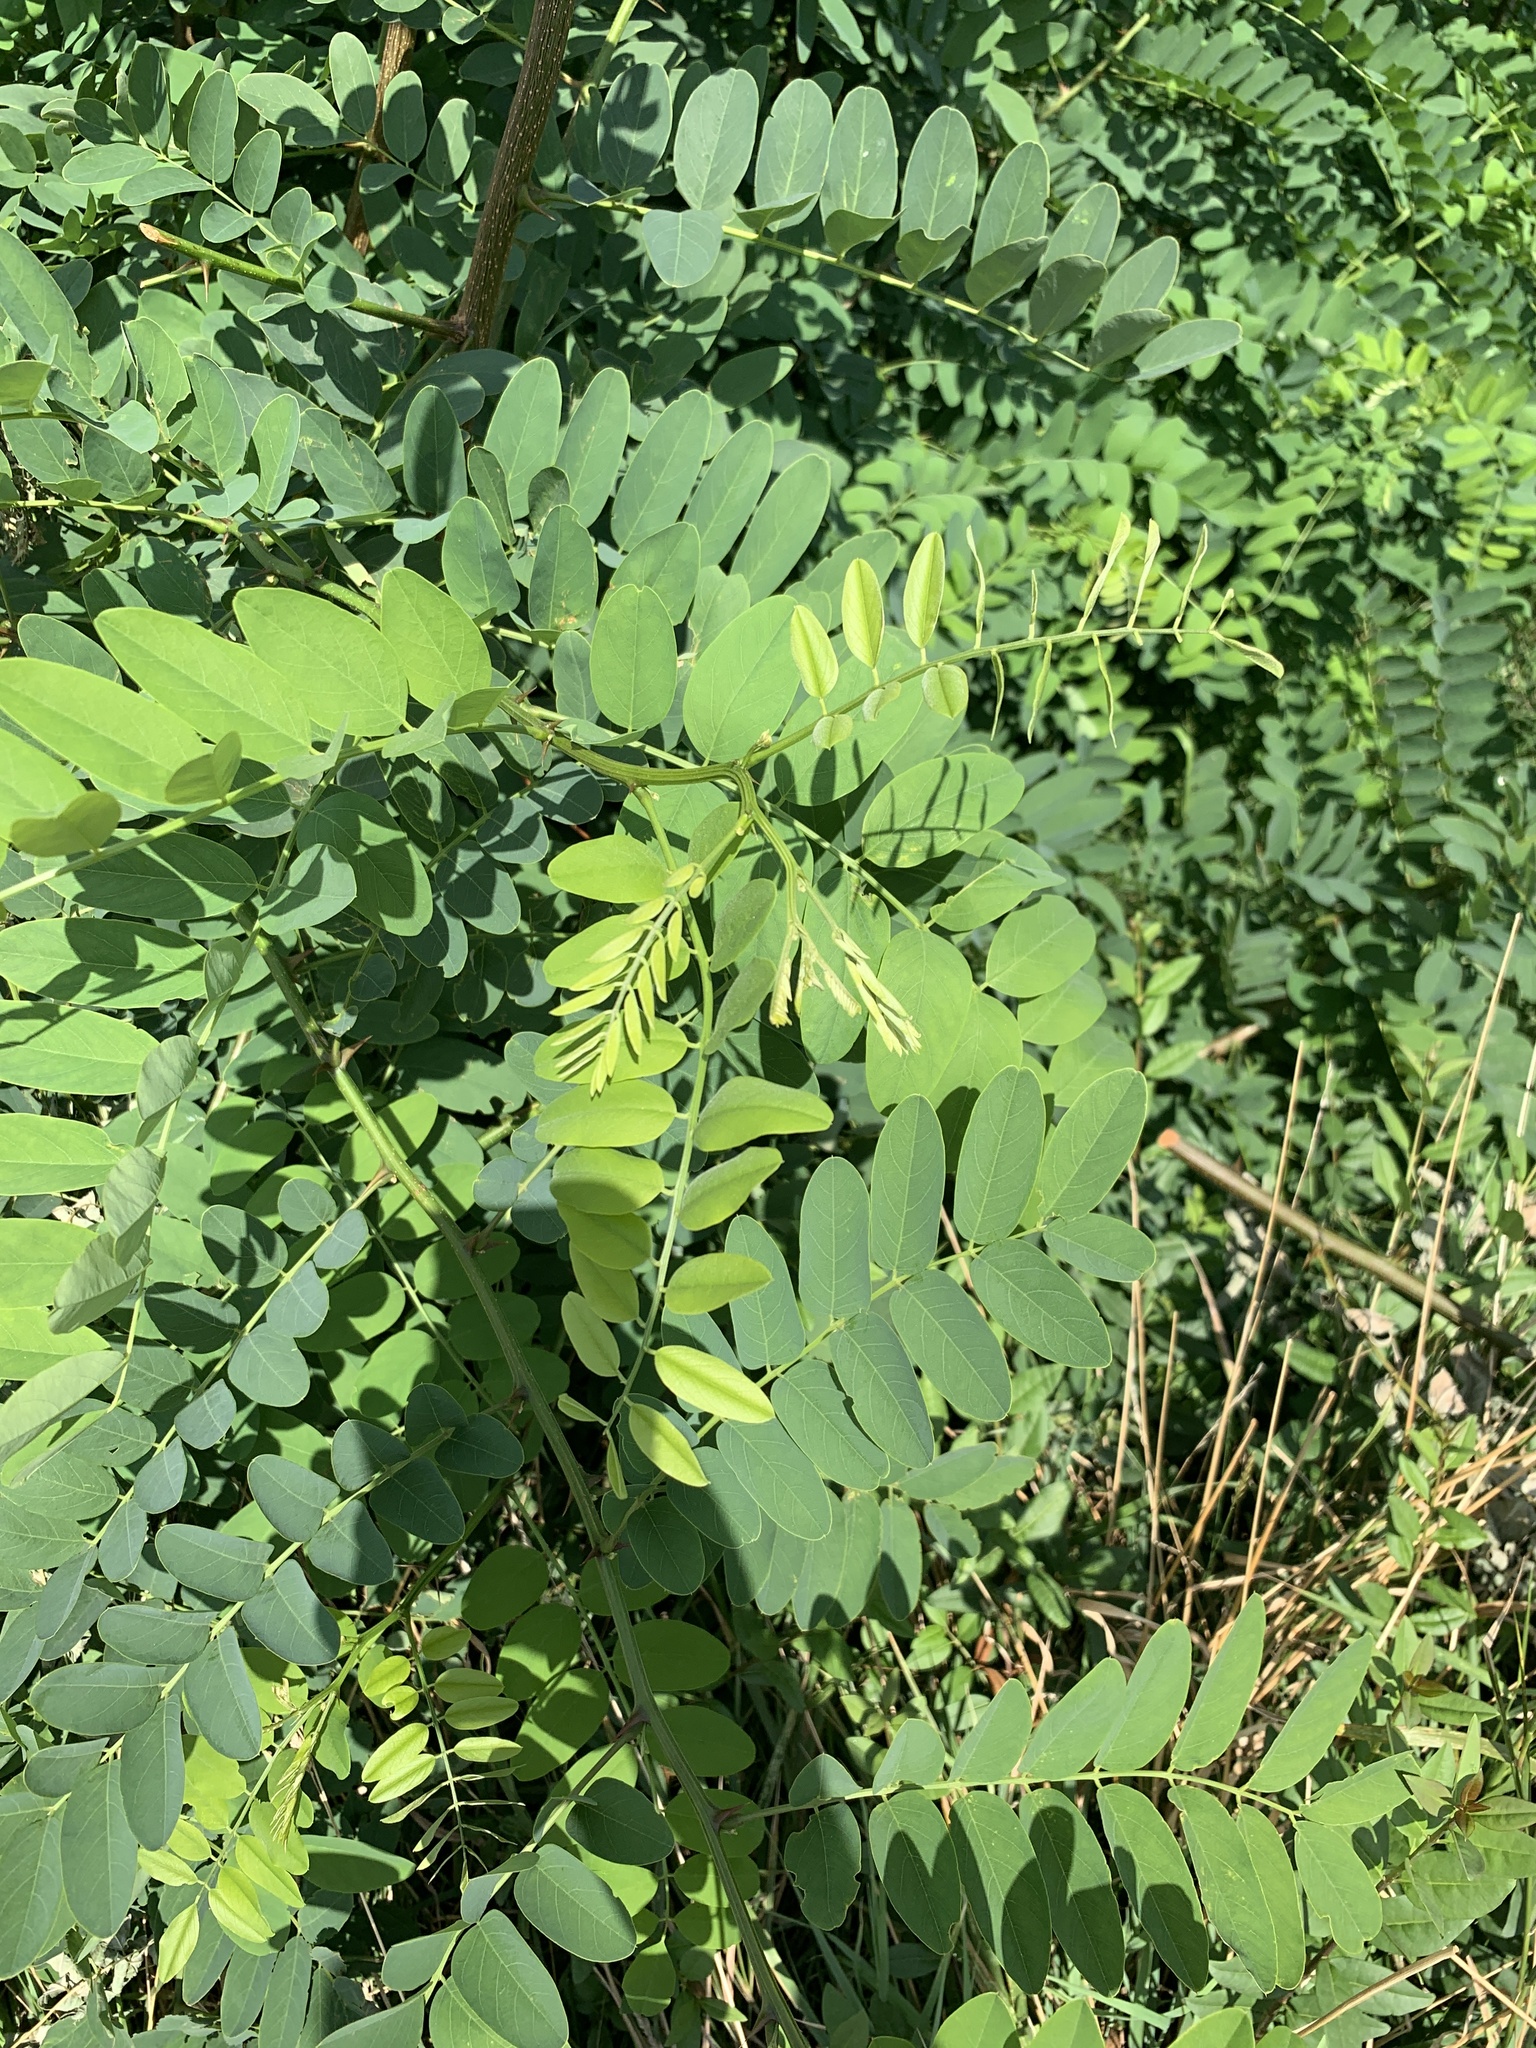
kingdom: Plantae
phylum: Tracheophyta
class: Magnoliopsida
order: Fabales
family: Fabaceae
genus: Robinia
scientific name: Robinia pseudoacacia
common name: Black locust
